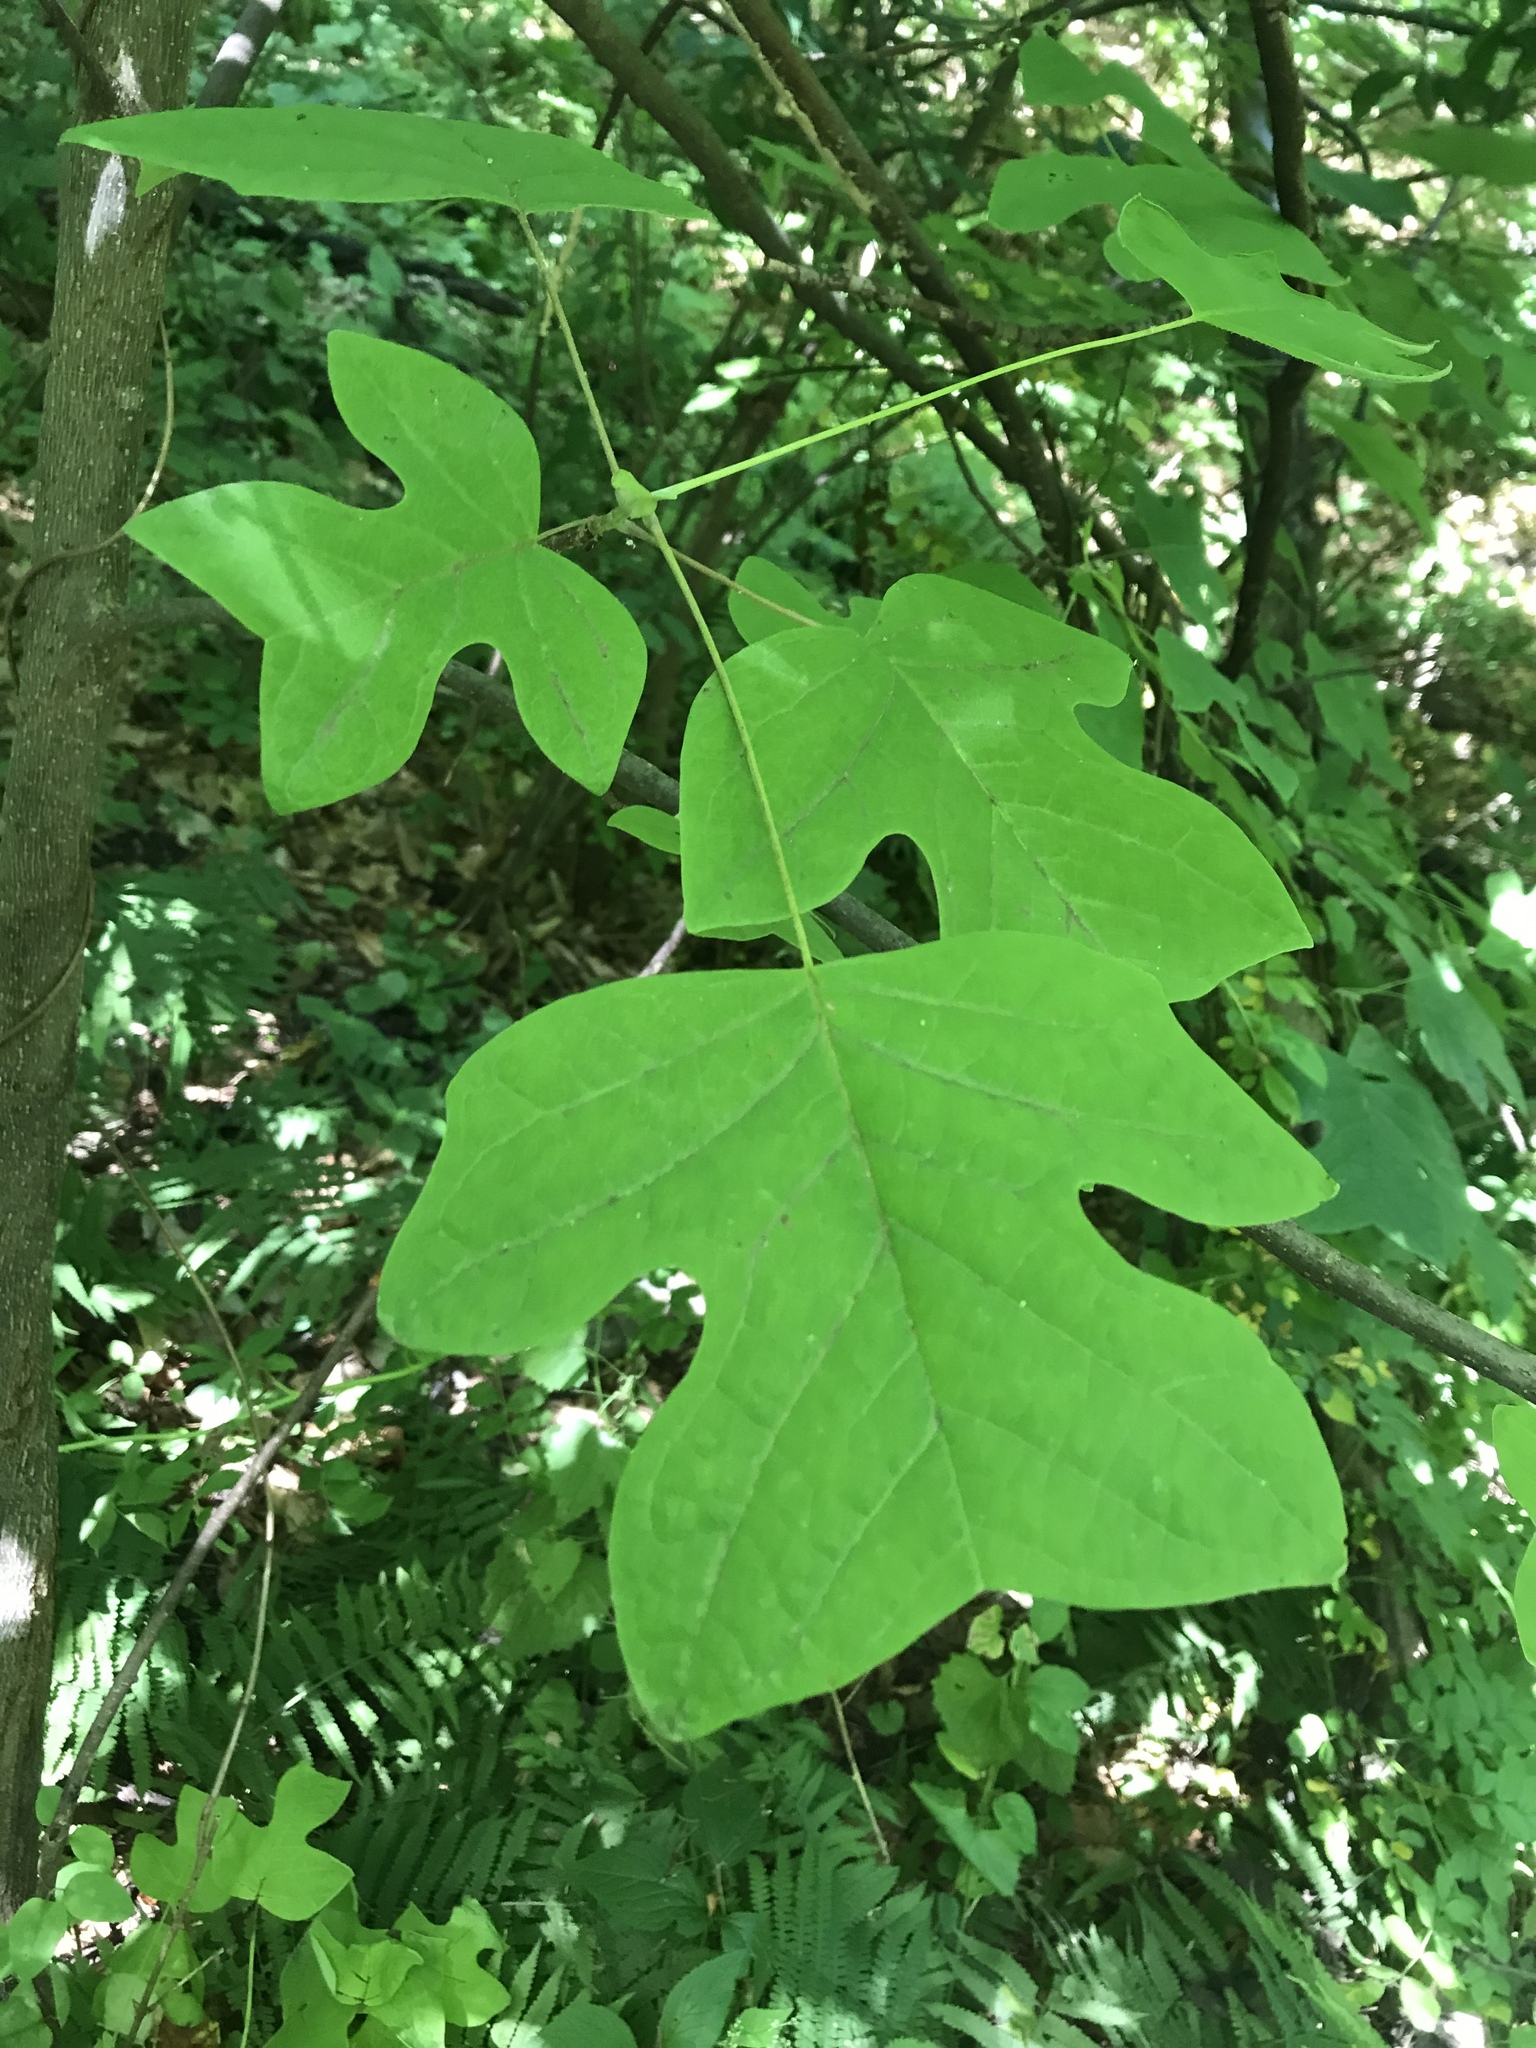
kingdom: Plantae
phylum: Tracheophyta
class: Magnoliopsida
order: Magnoliales
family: Magnoliaceae
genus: Liriodendron
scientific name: Liriodendron tulipifera
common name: Tulip tree
